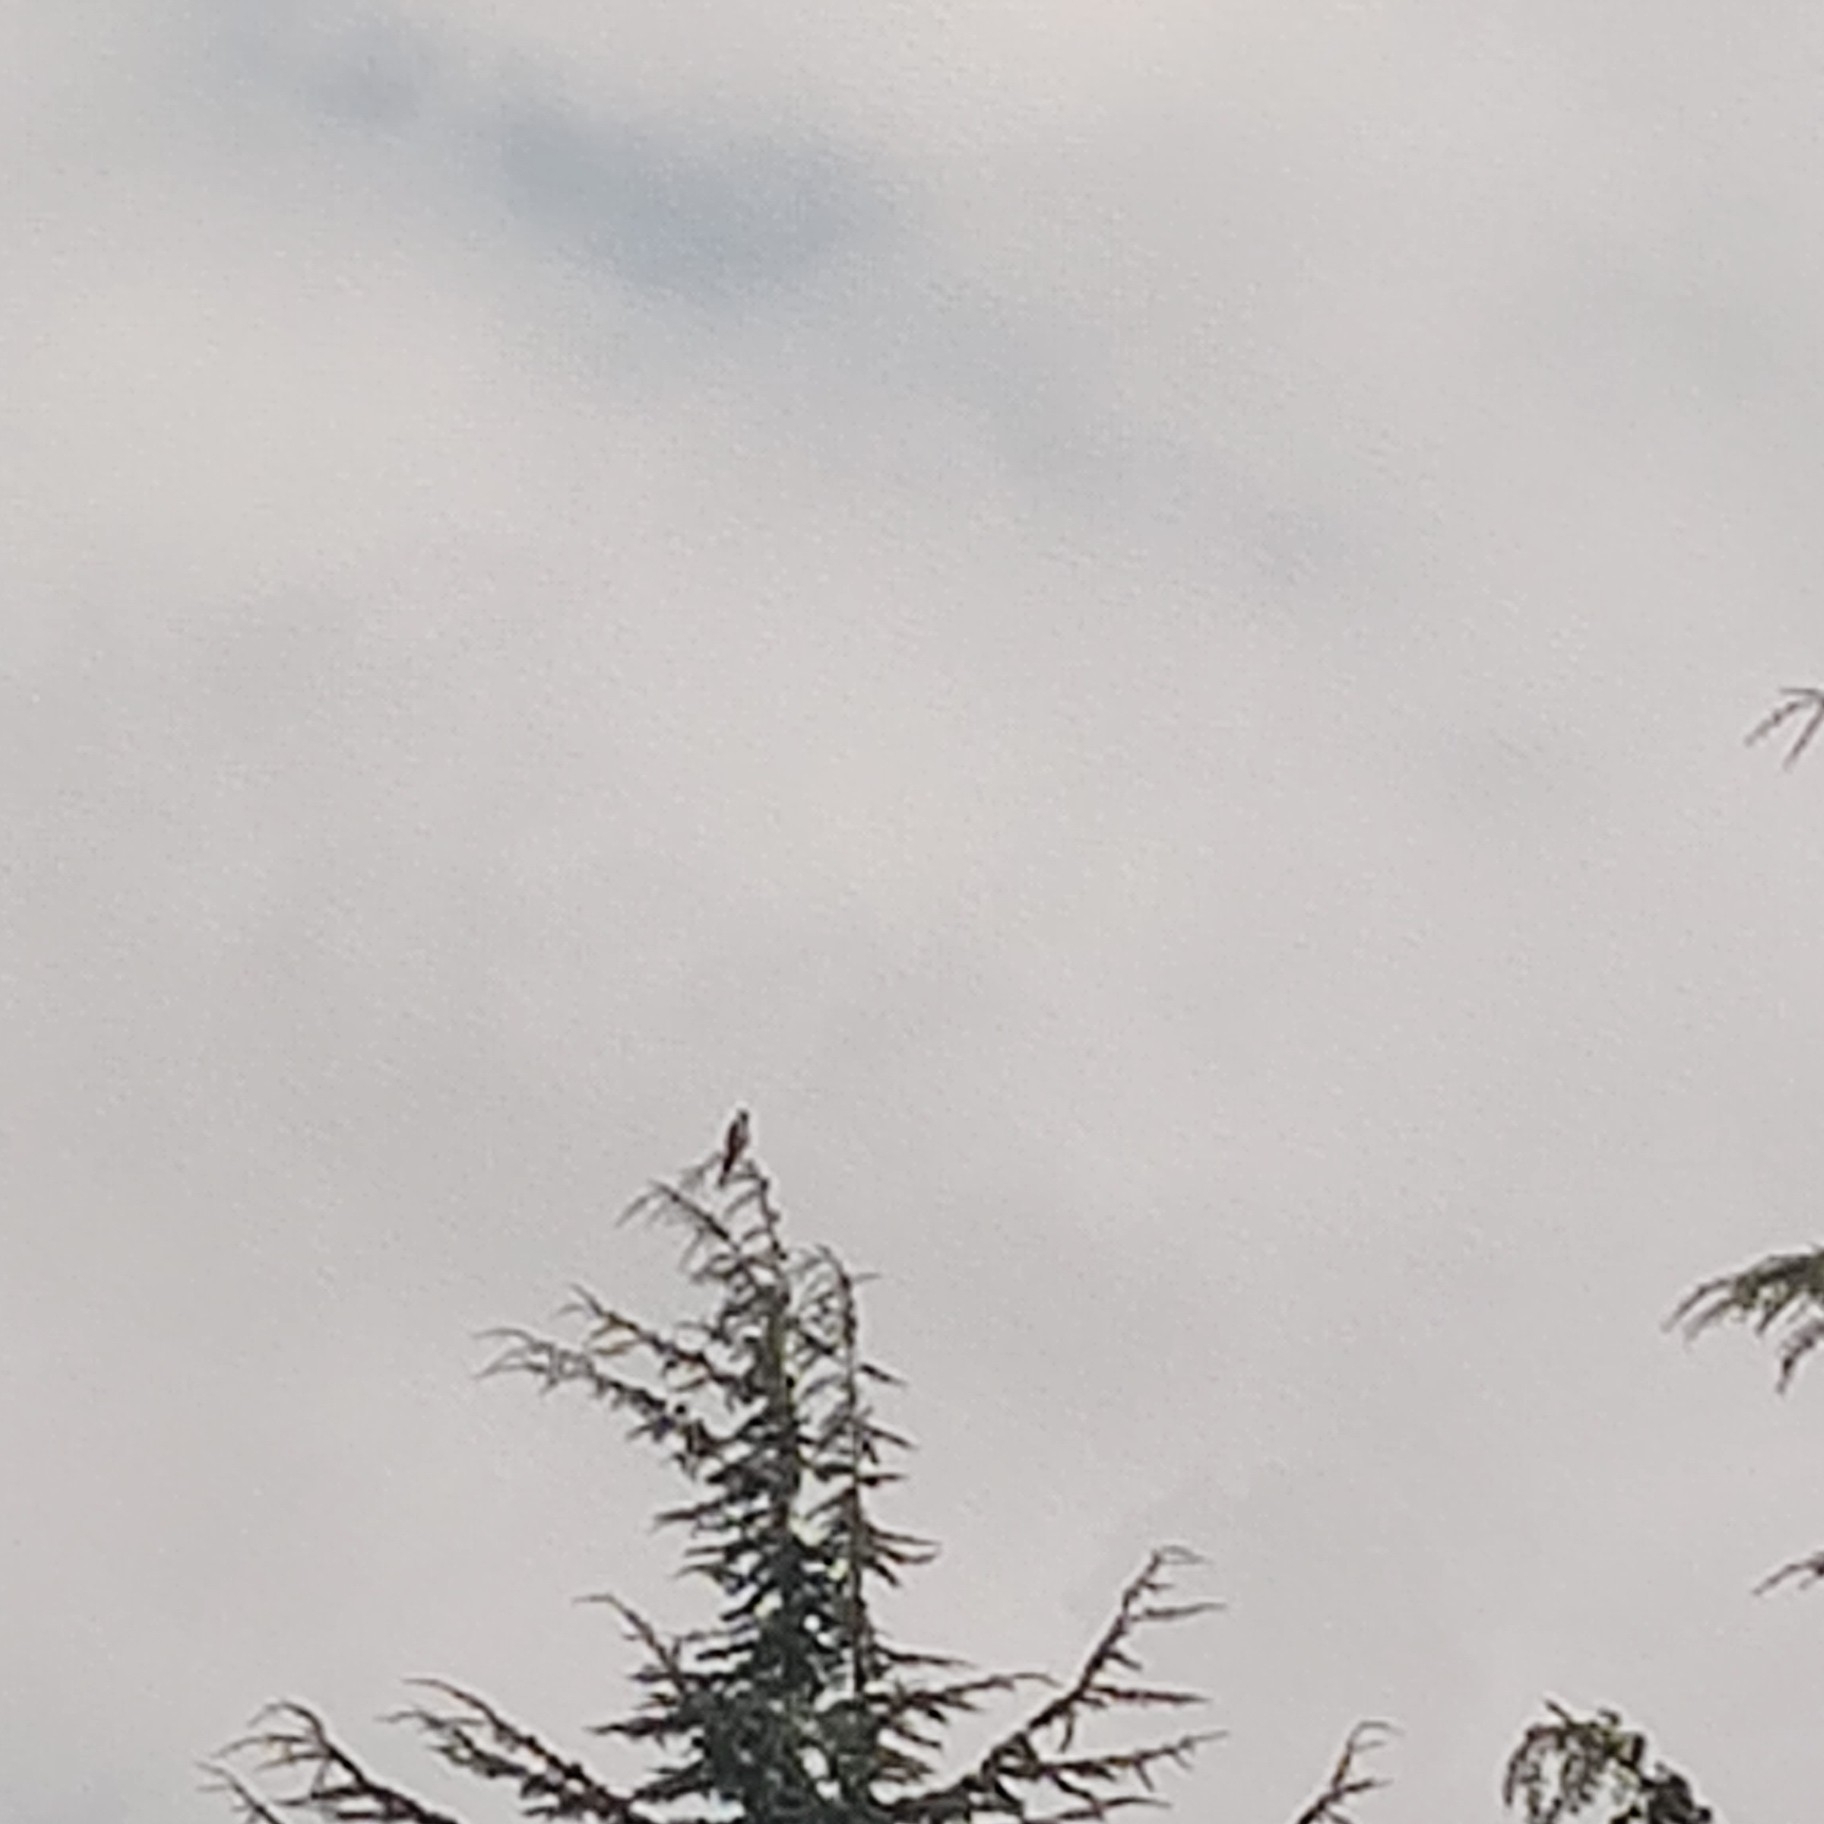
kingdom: Animalia
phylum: Chordata
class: Aves
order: Falconiformes
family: Falconidae
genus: Falco
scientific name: Falco subbuteo
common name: Eurasian hobby
